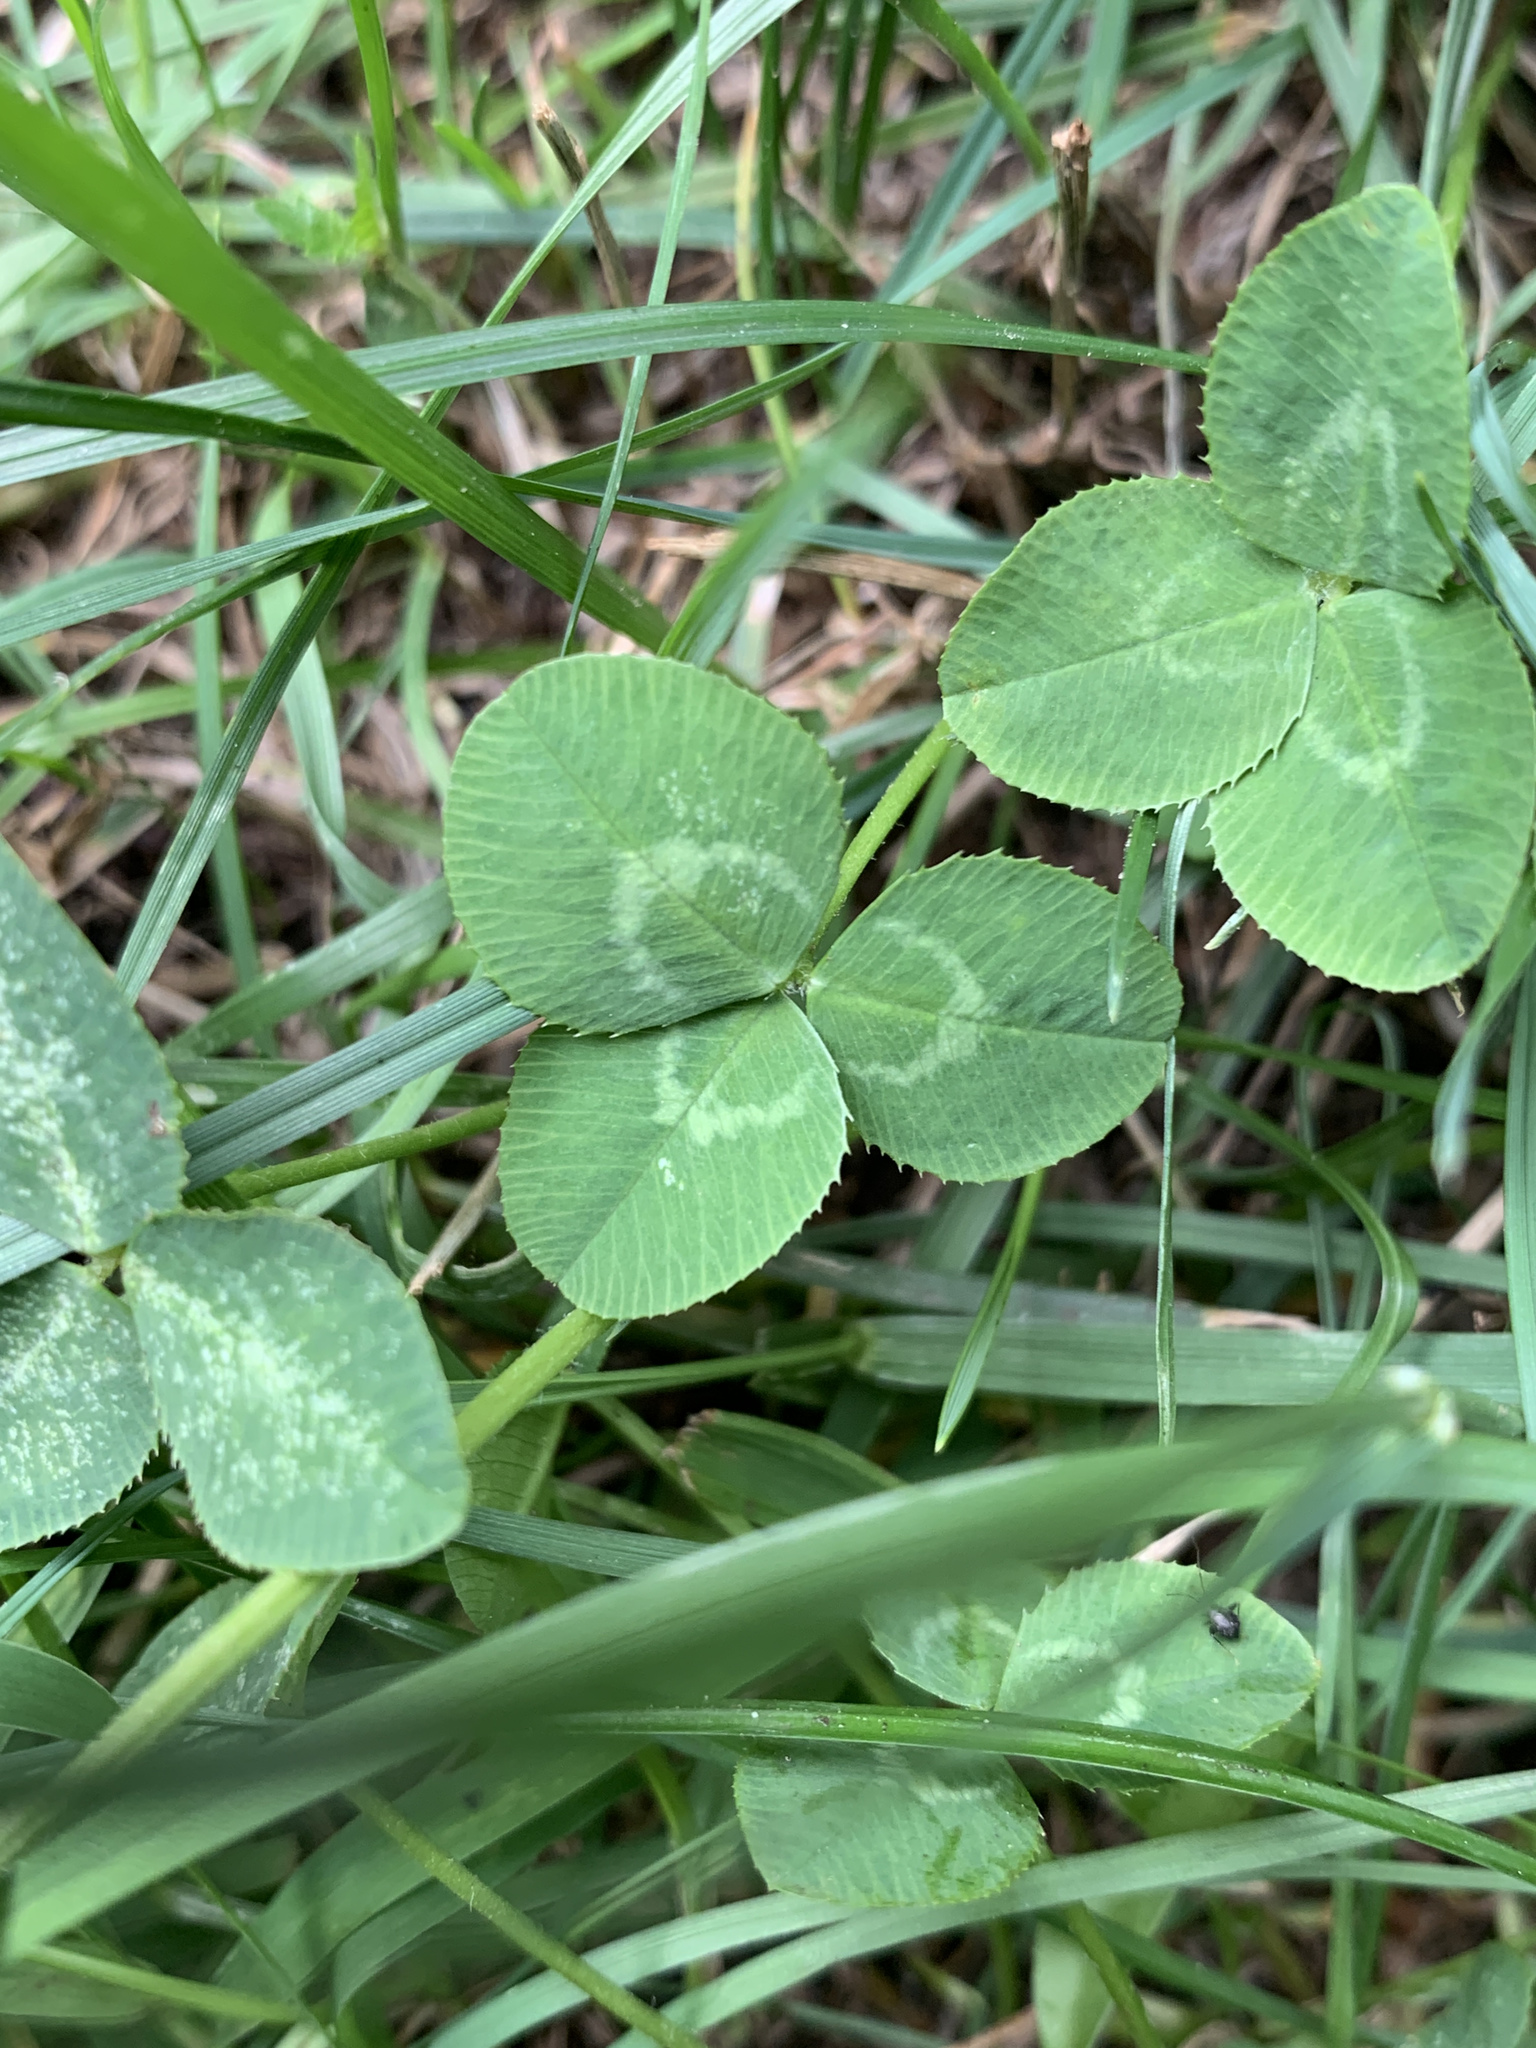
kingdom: Plantae
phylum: Tracheophyta
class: Magnoliopsida
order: Fabales
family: Fabaceae
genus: Trifolium
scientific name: Trifolium repens
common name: White clover
